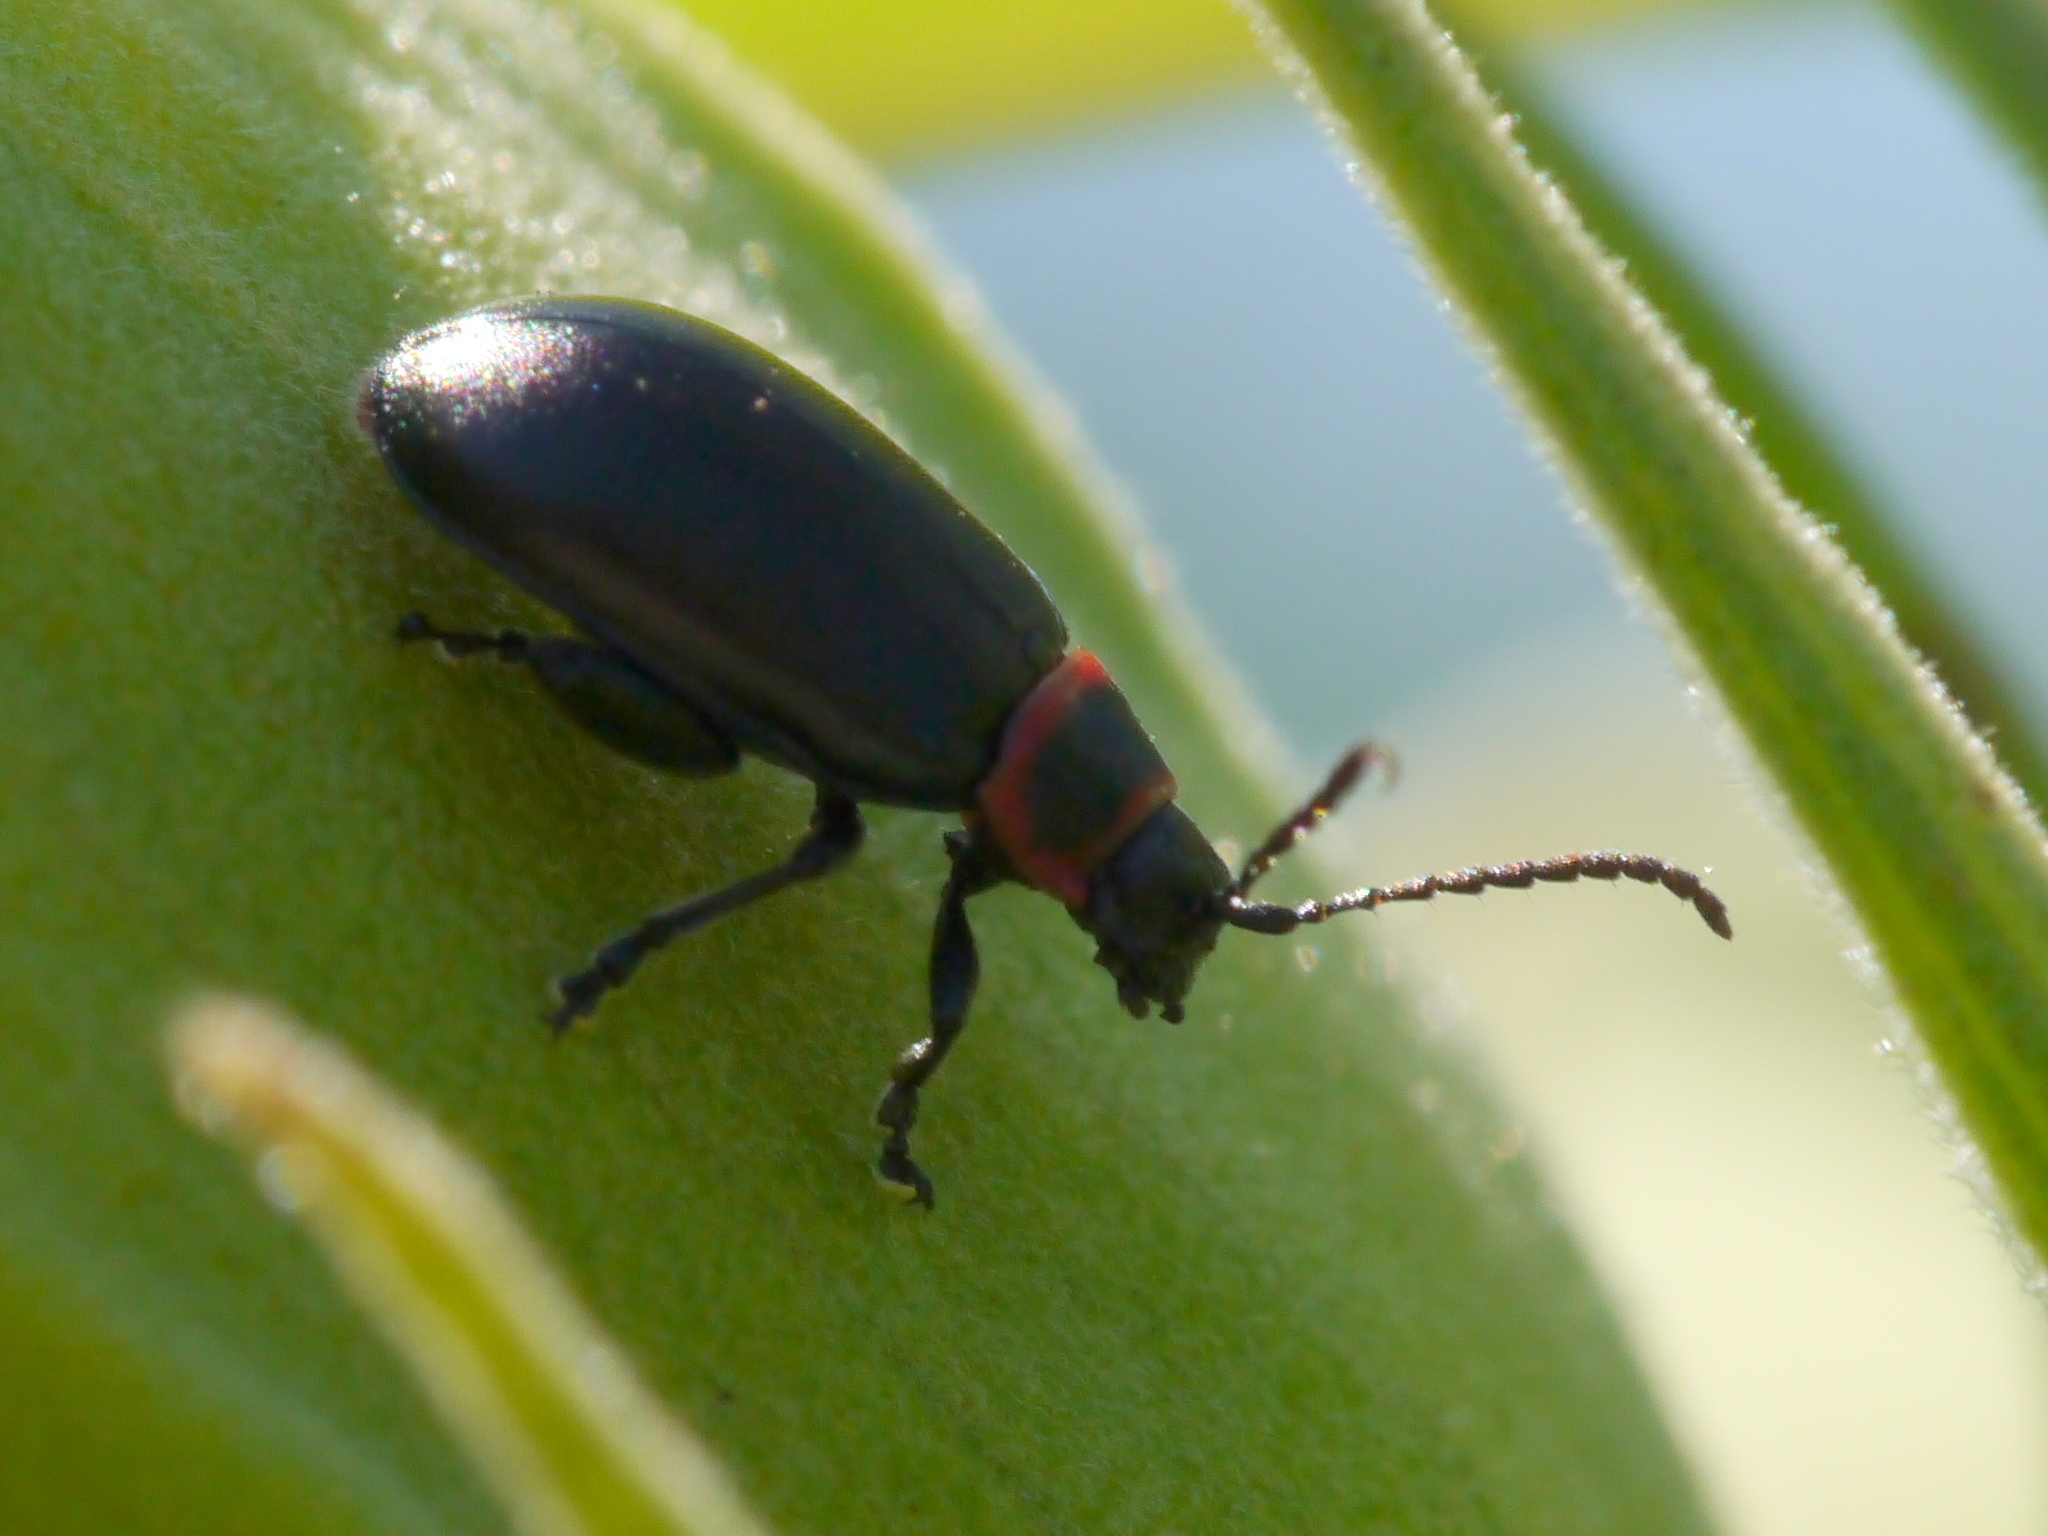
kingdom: Animalia
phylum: Arthropoda
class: Insecta
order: Coleoptera
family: Chrysomelidae
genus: Kuschelina
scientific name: Kuschelina vians
